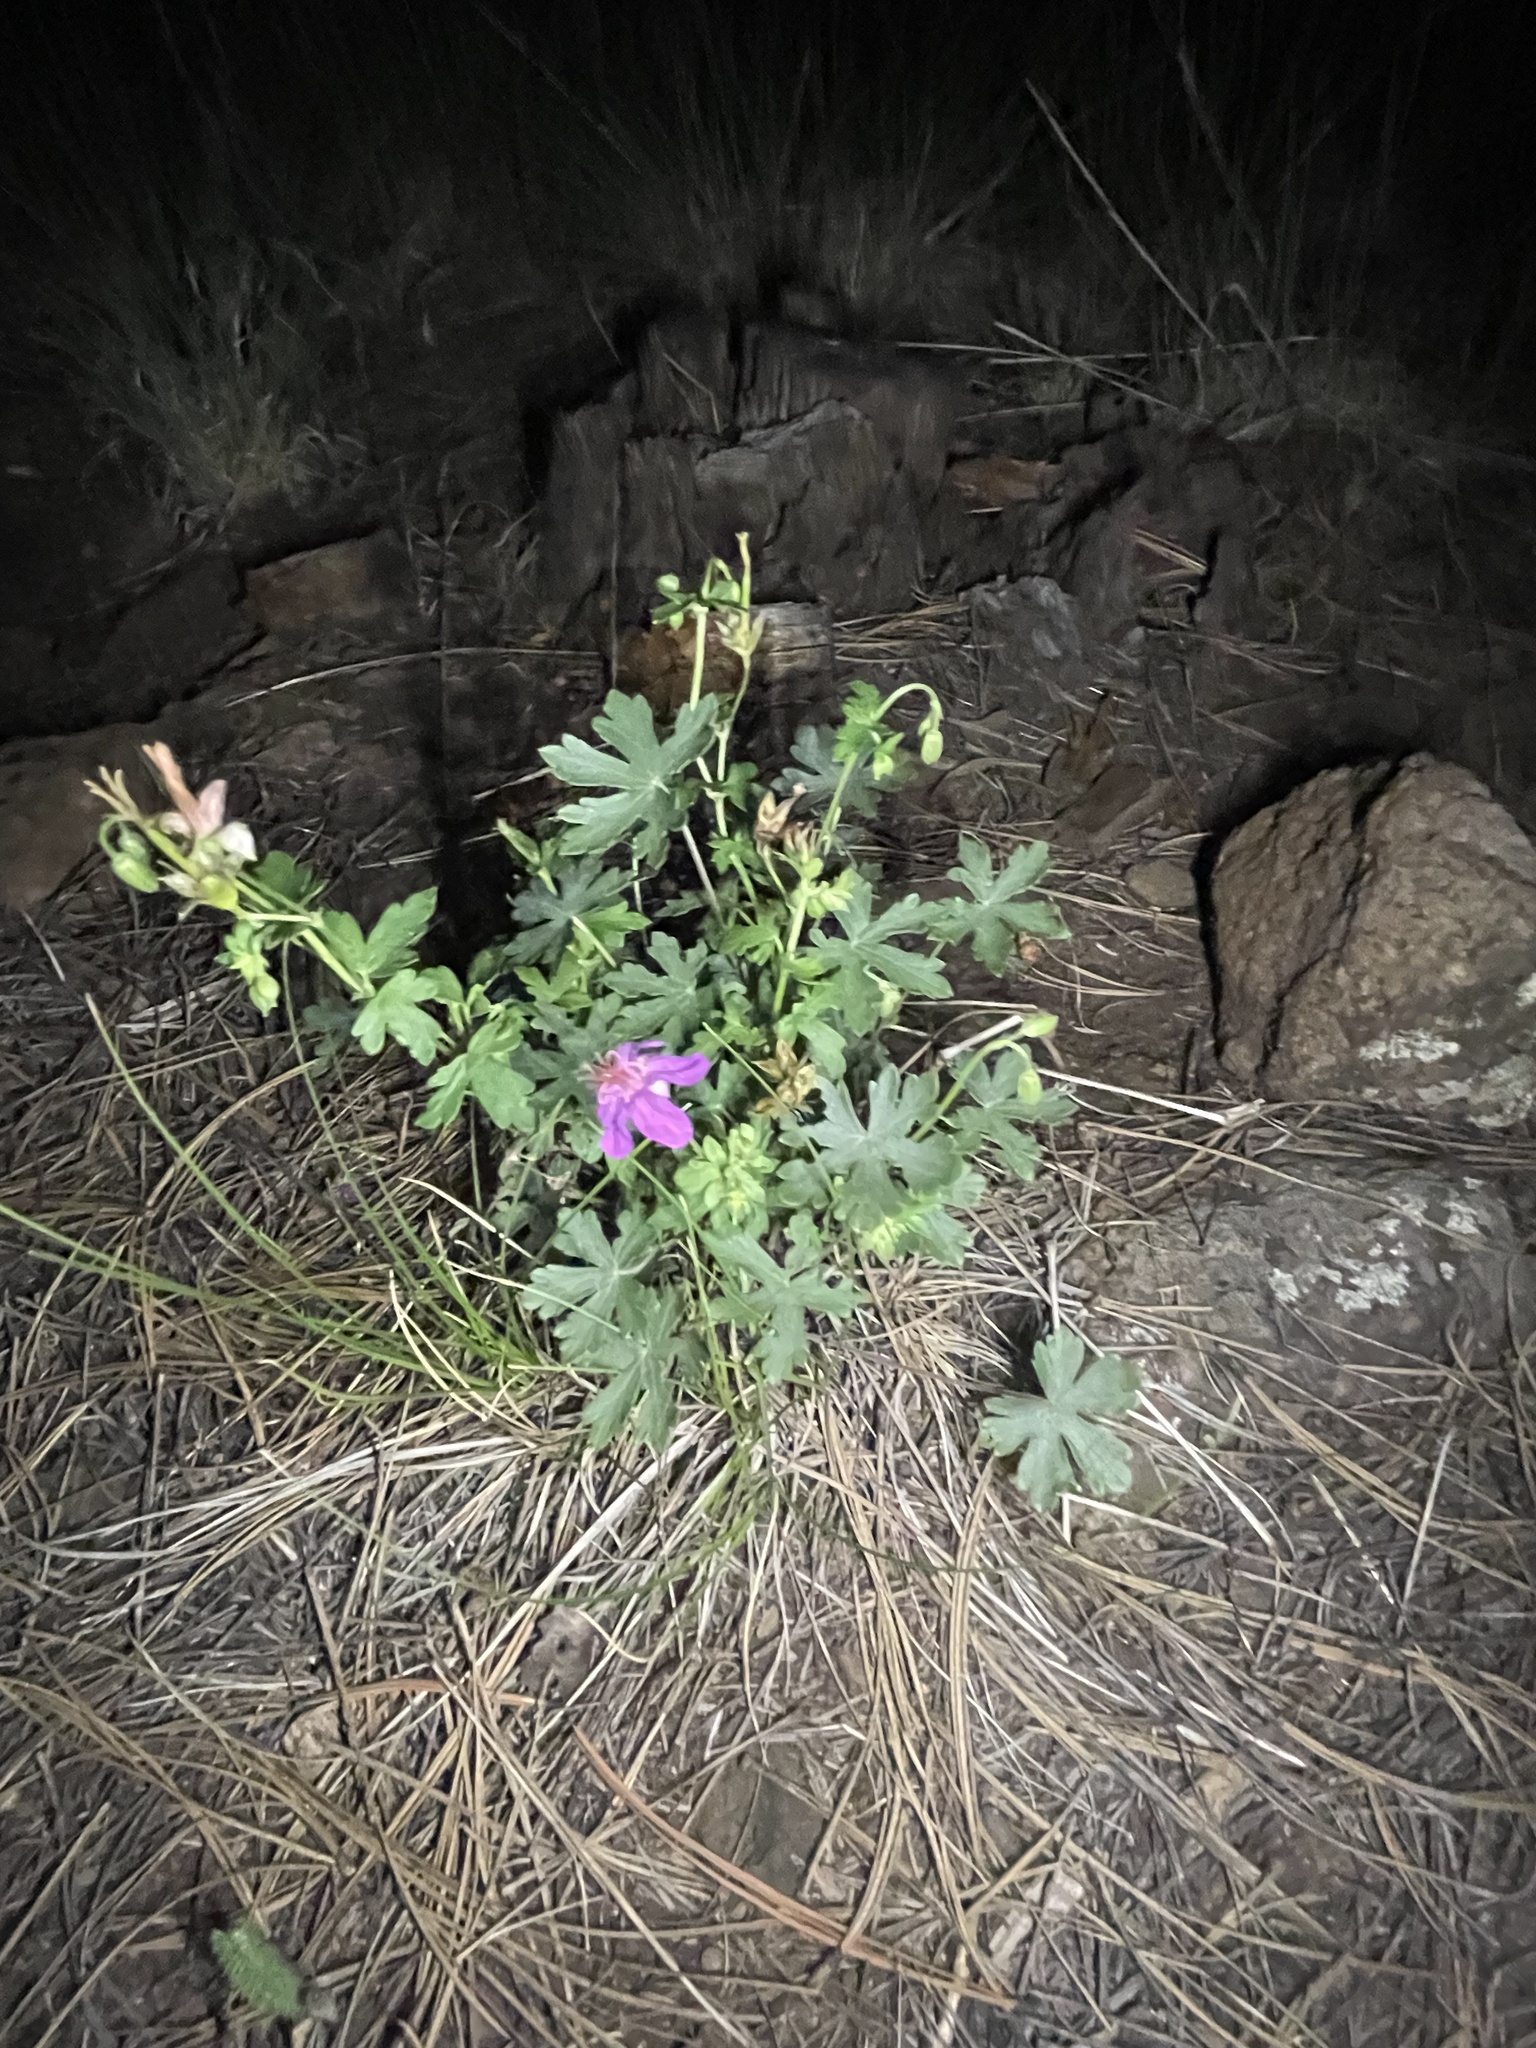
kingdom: Plantae
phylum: Tracheophyta
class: Magnoliopsida
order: Geraniales
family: Geraniaceae
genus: Geranium
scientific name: Geranium caespitosum
